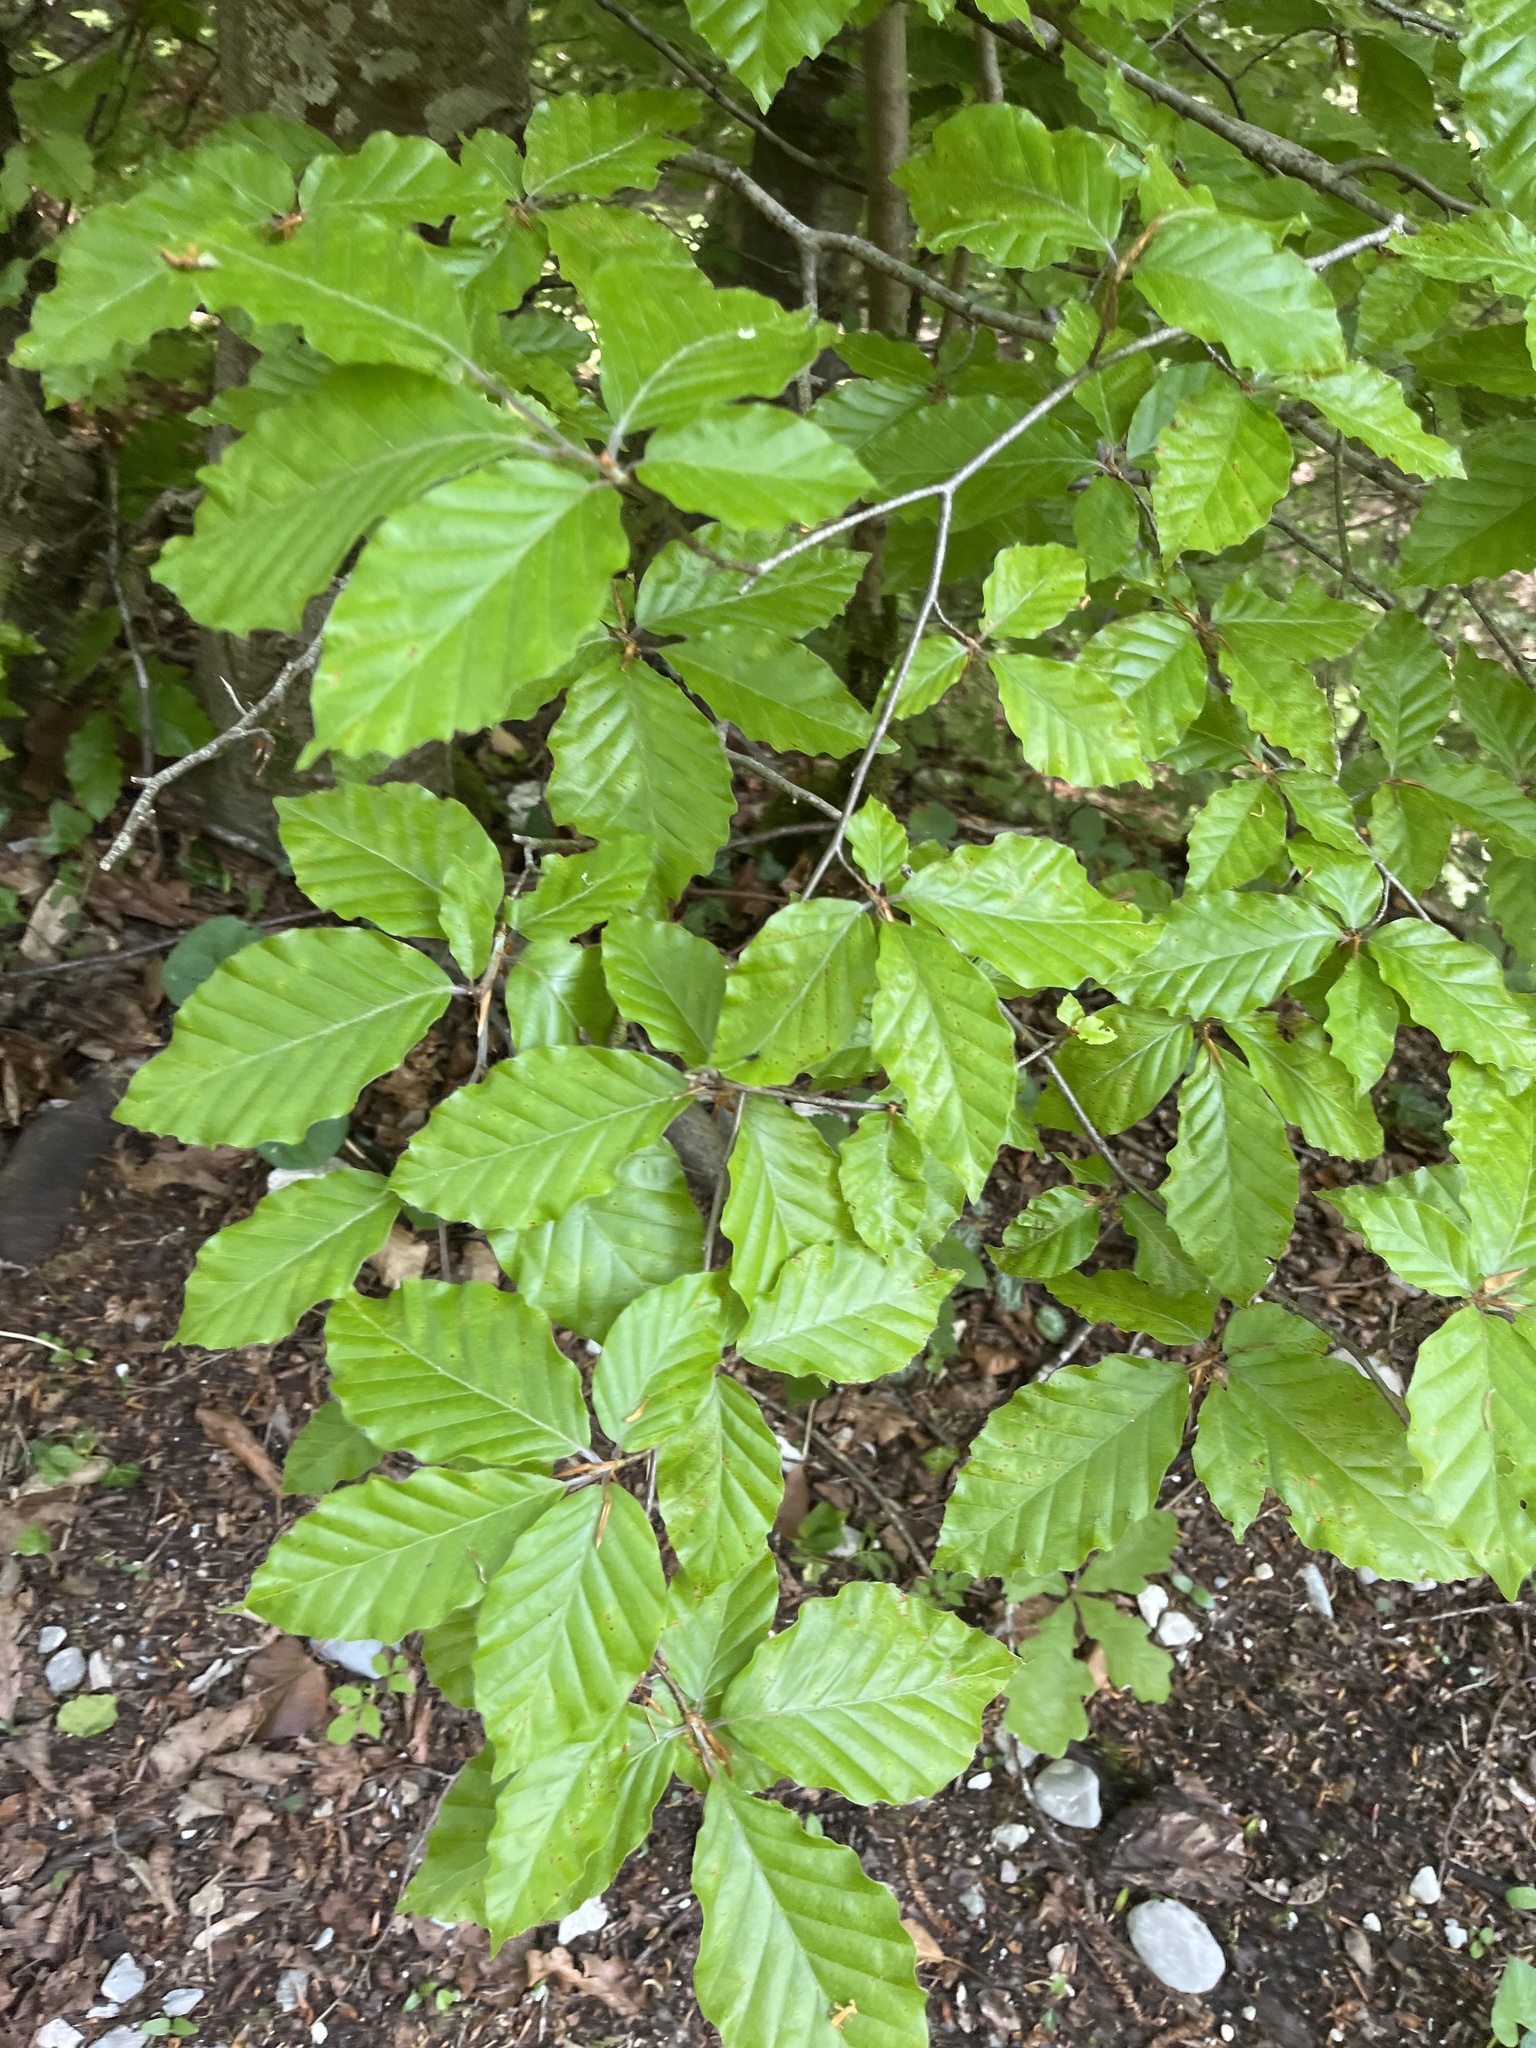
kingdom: Plantae
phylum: Tracheophyta
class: Magnoliopsida
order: Fagales
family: Fagaceae
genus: Fagus
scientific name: Fagus sylvatica
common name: Beech
